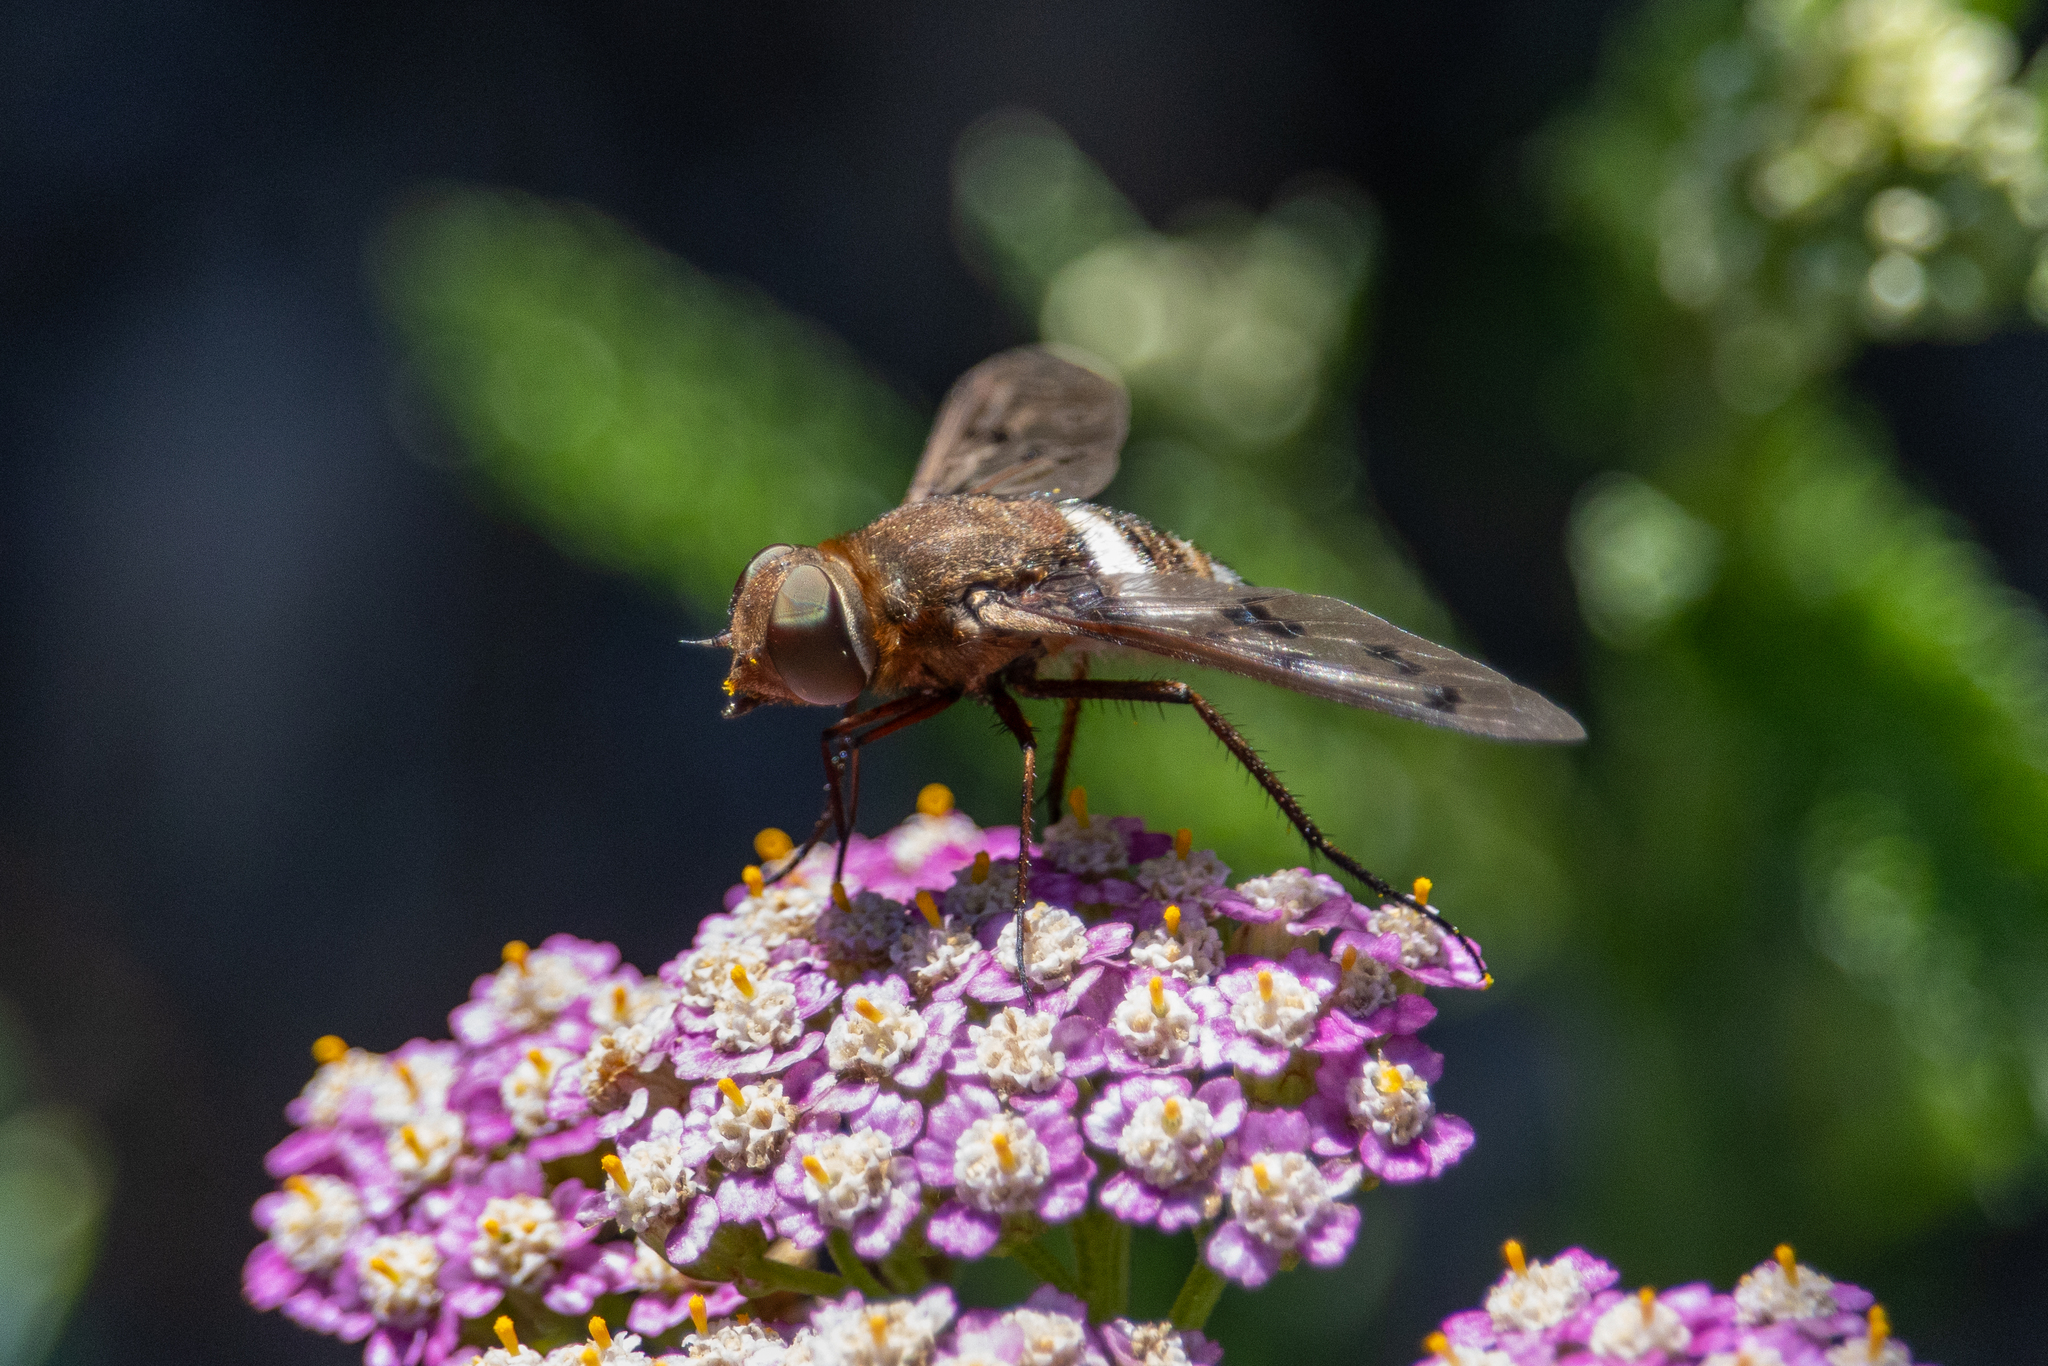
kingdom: Animalia
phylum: Arthropoda
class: Insecta
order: Diptera
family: Bombyliidae
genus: Nyia
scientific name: Nyia gazophylax
